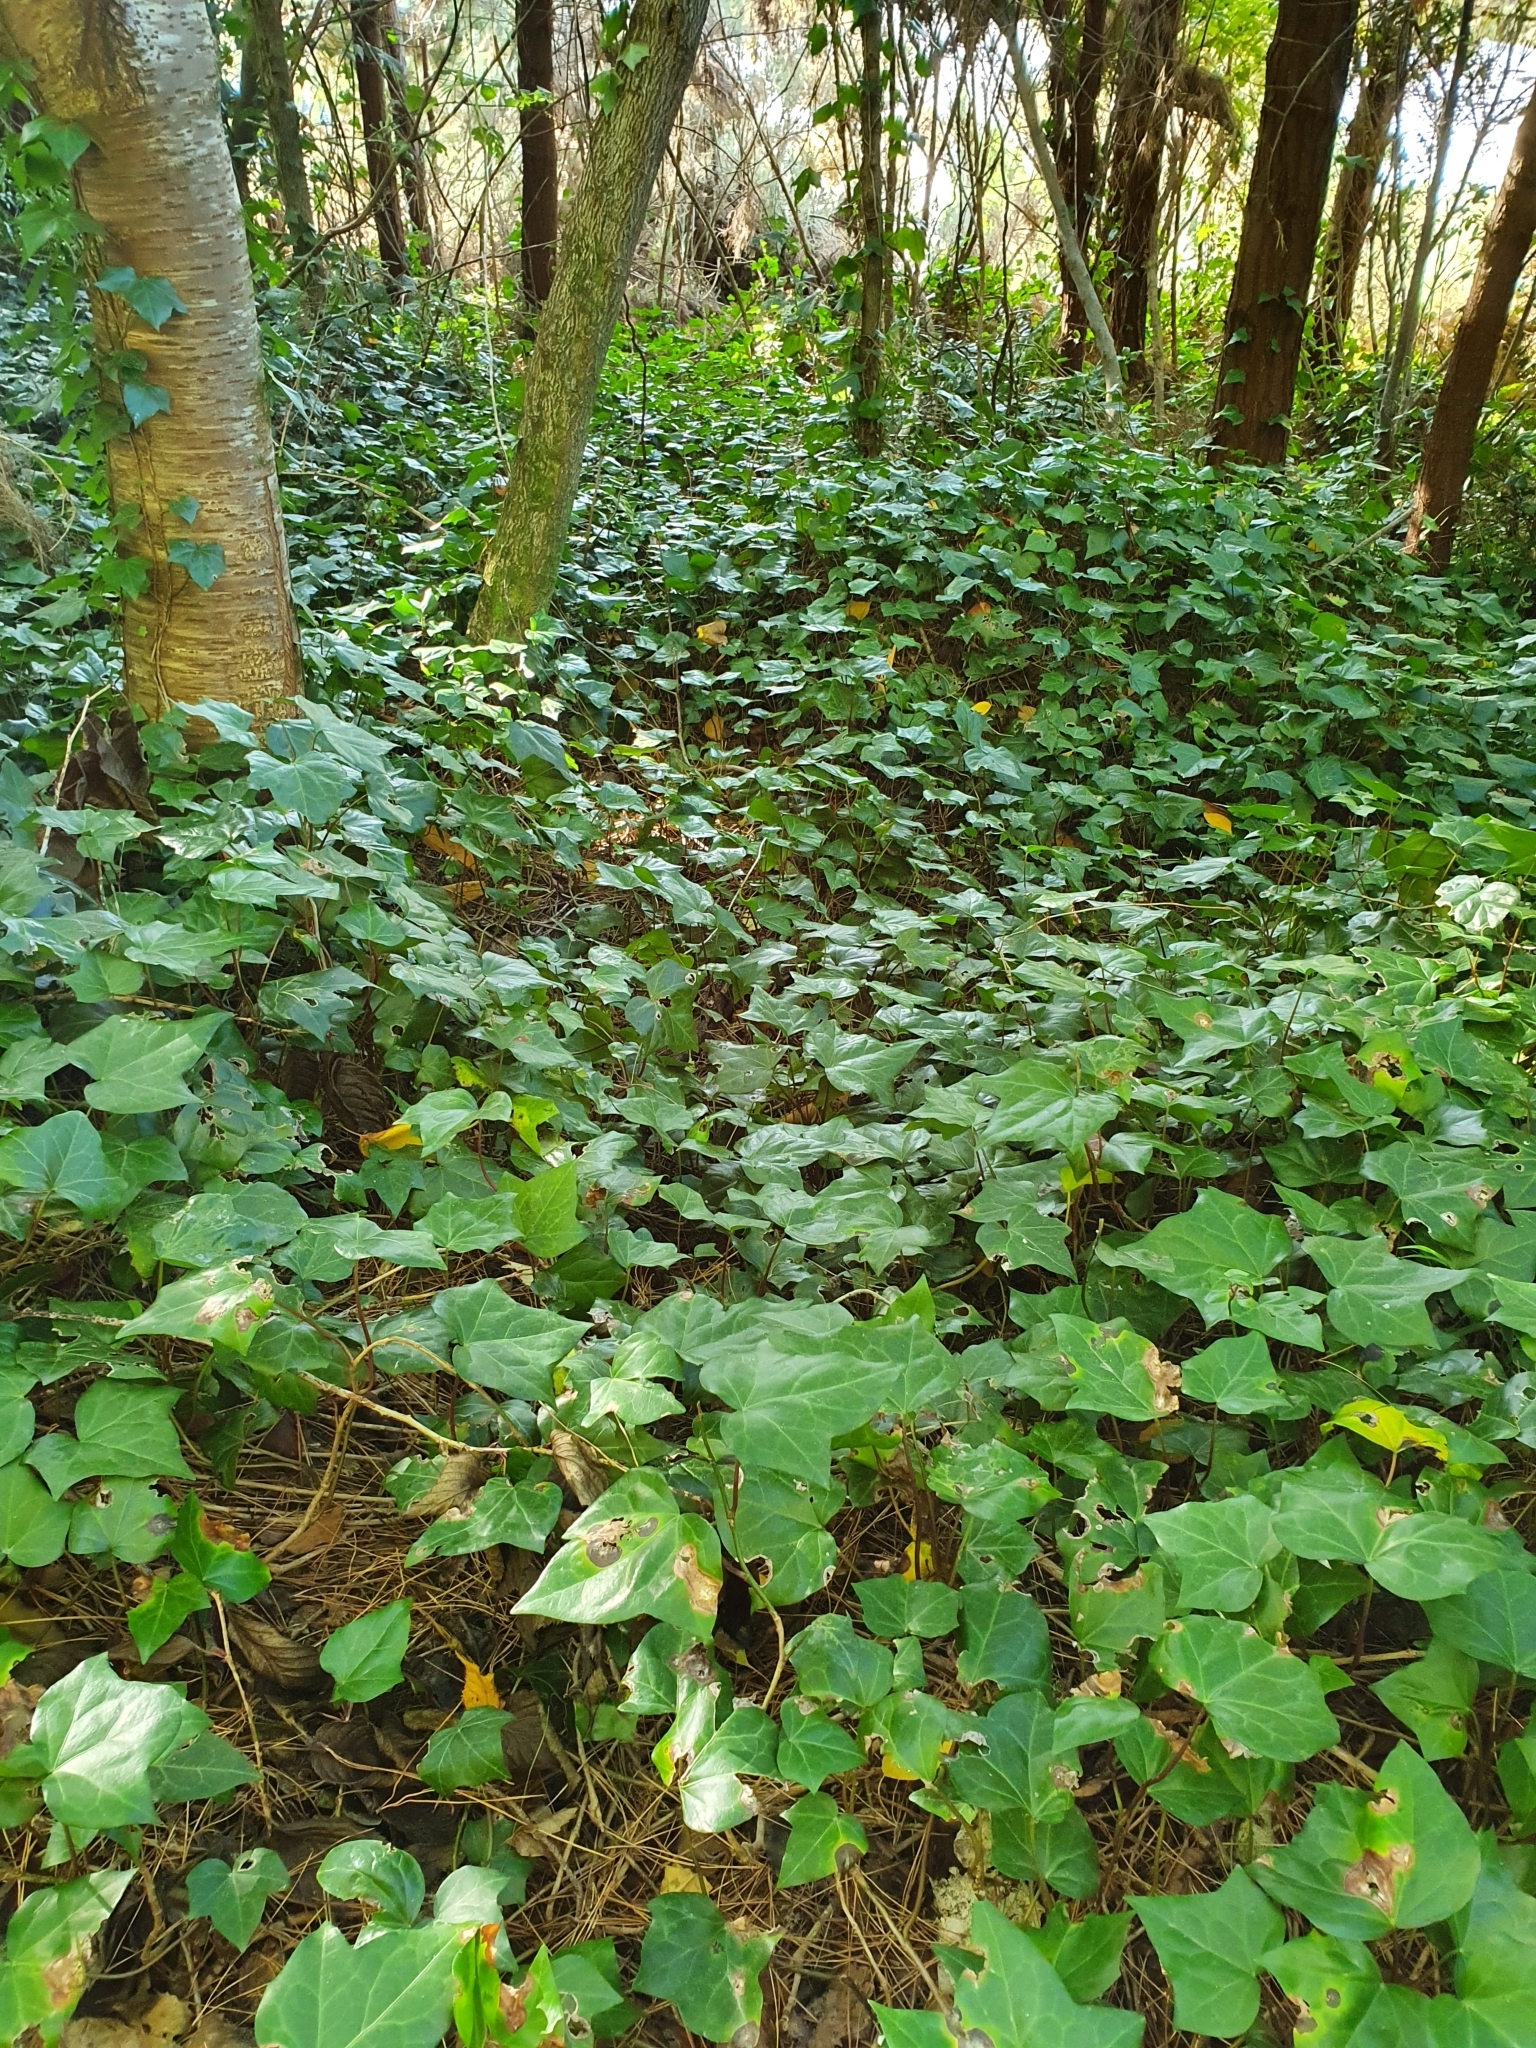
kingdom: Plantae
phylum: Tracheophyta
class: Magnoliopsida
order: Apiales
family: Araliaceae
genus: Hedera
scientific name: Hedera helix
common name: Ivy
